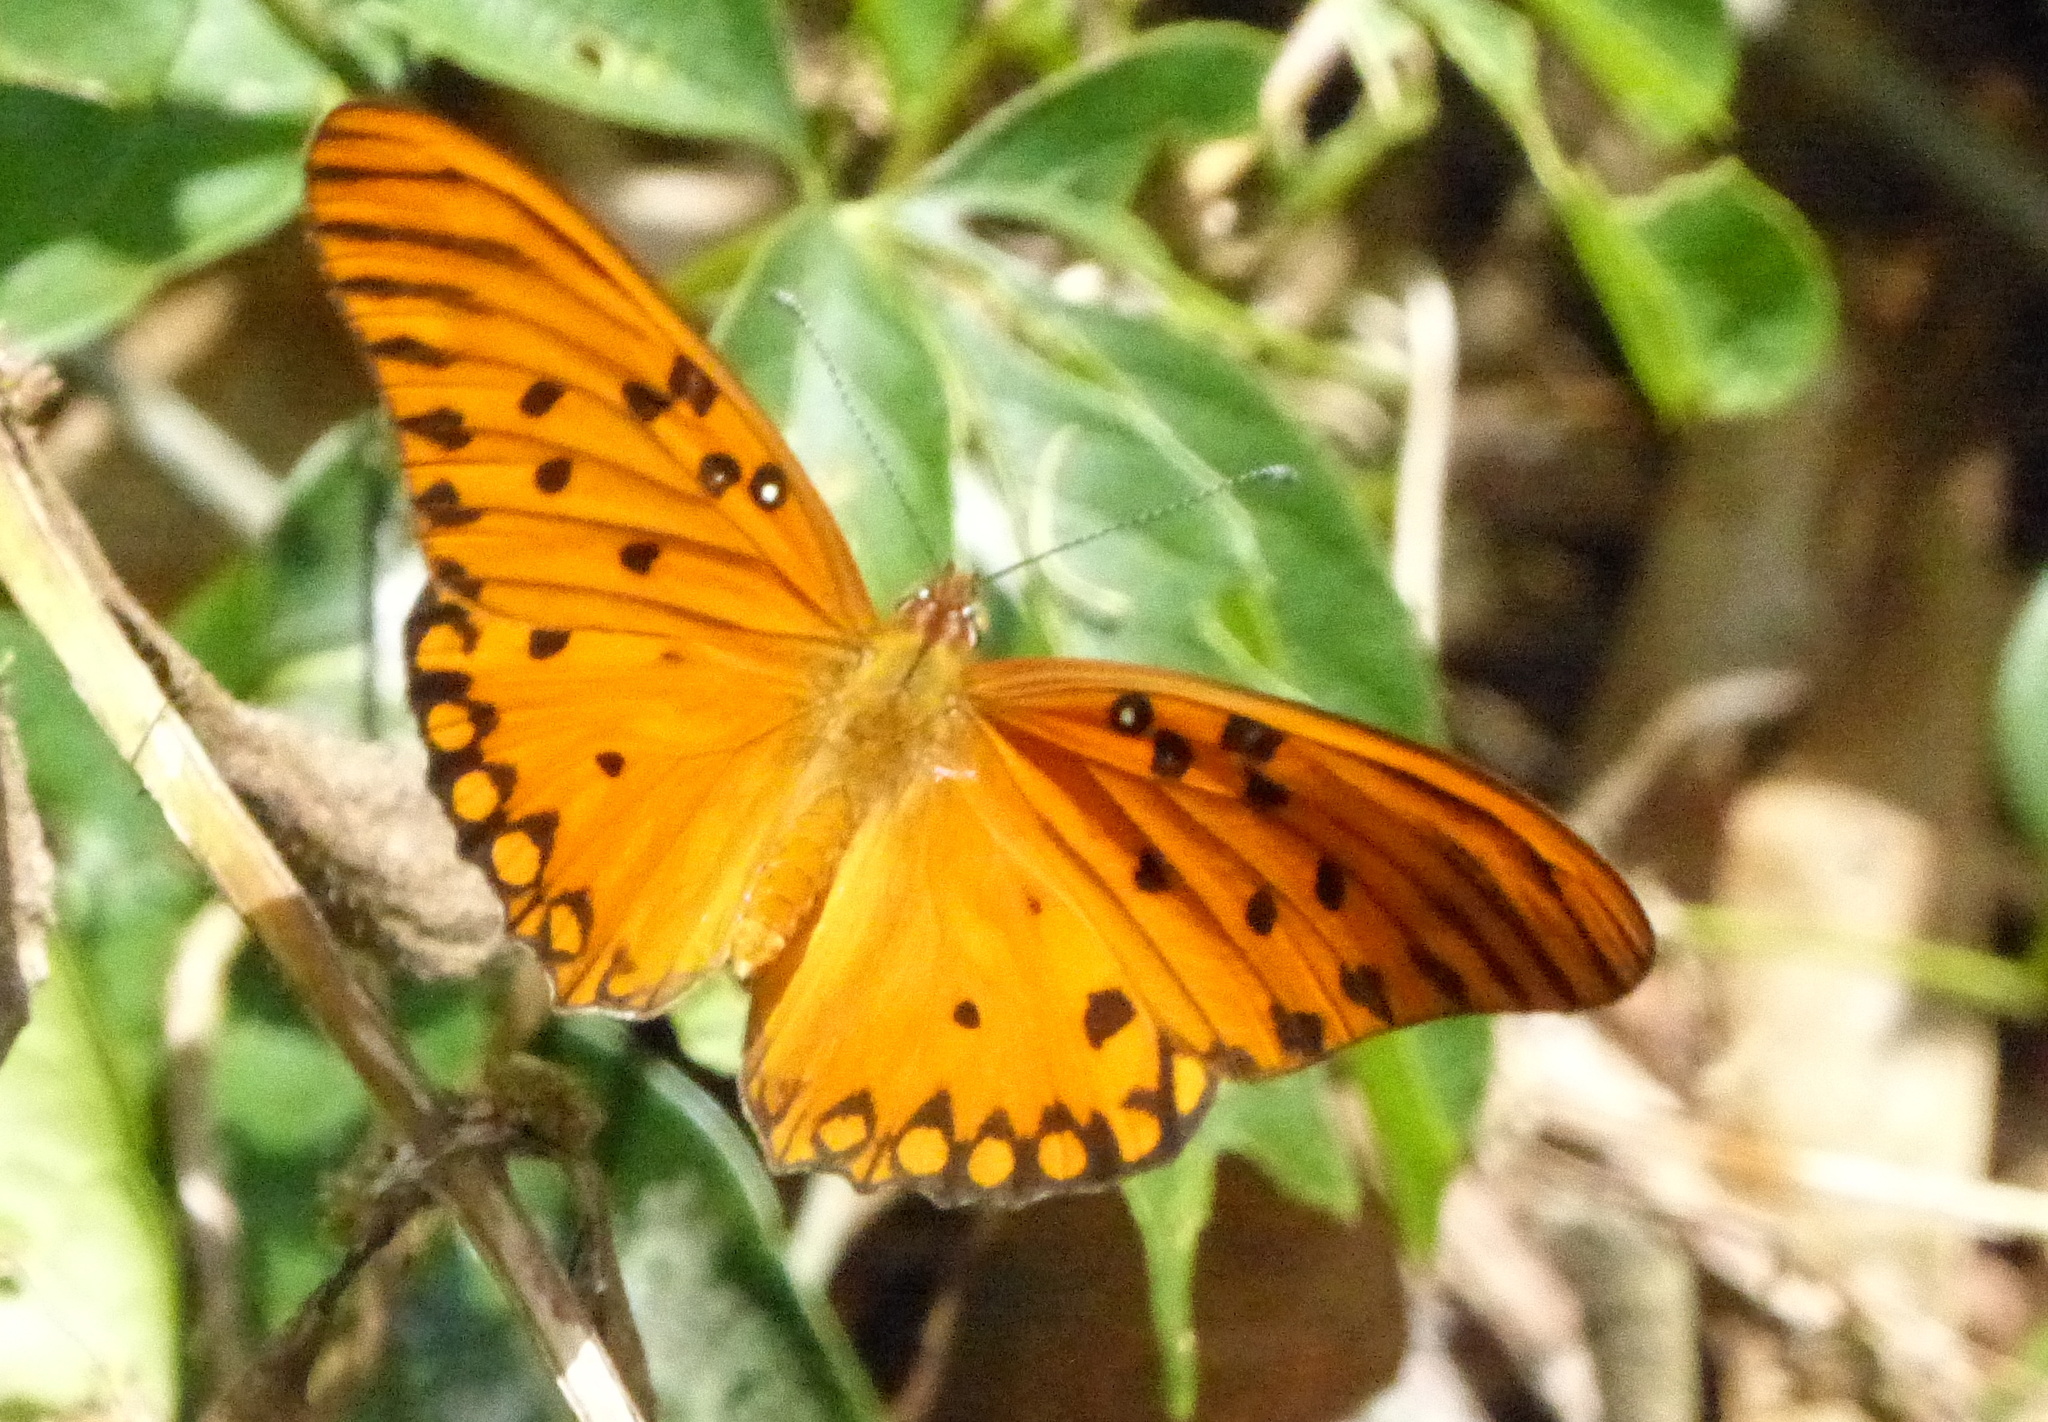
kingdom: Animalia
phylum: Arthropoda
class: Insecta
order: Lepidoptera
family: Nymphalidae
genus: Dione
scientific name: Dione vanillae
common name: Gulf fritillary
